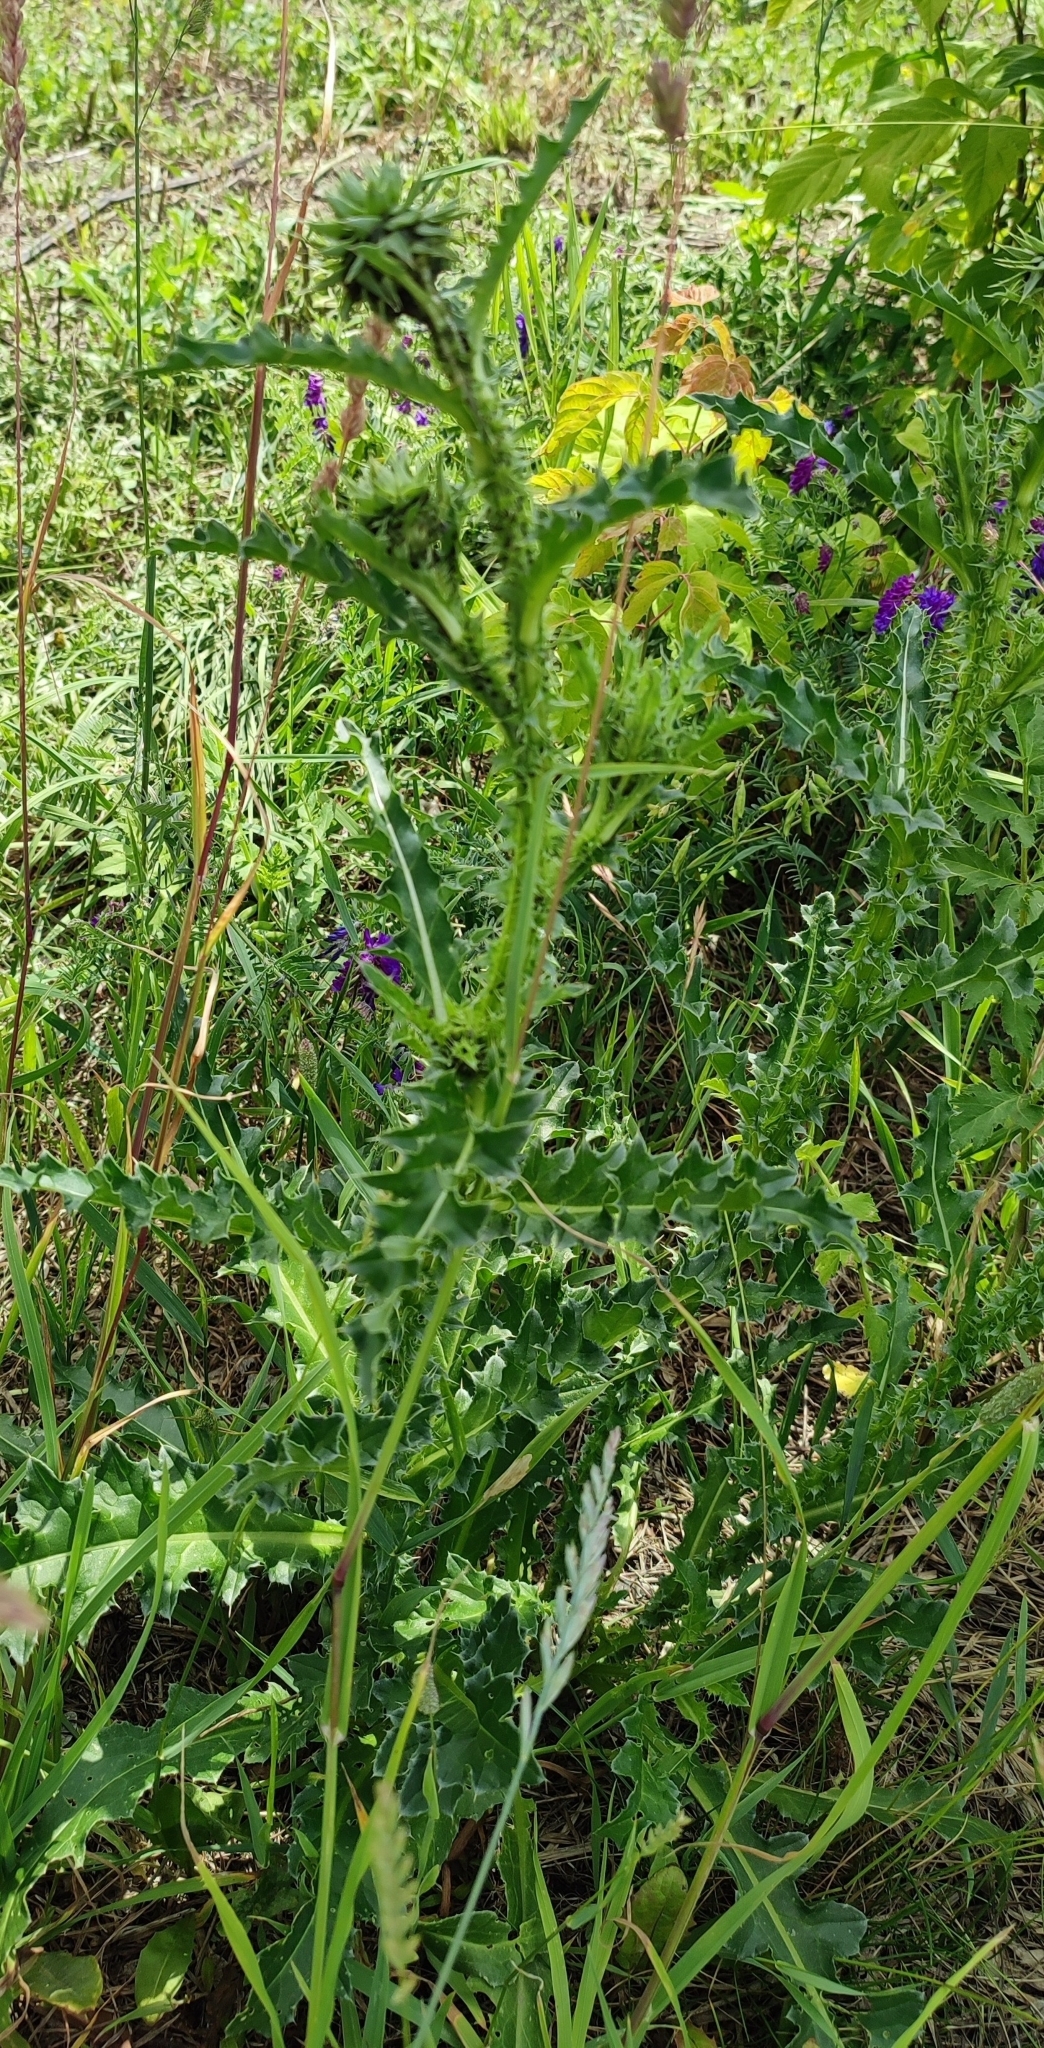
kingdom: Plantae
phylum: Tracheophyta
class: Magnoliopsida
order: Asterales
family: Asteraceae
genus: Carduus
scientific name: Carduus nutans
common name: Musk thistle
